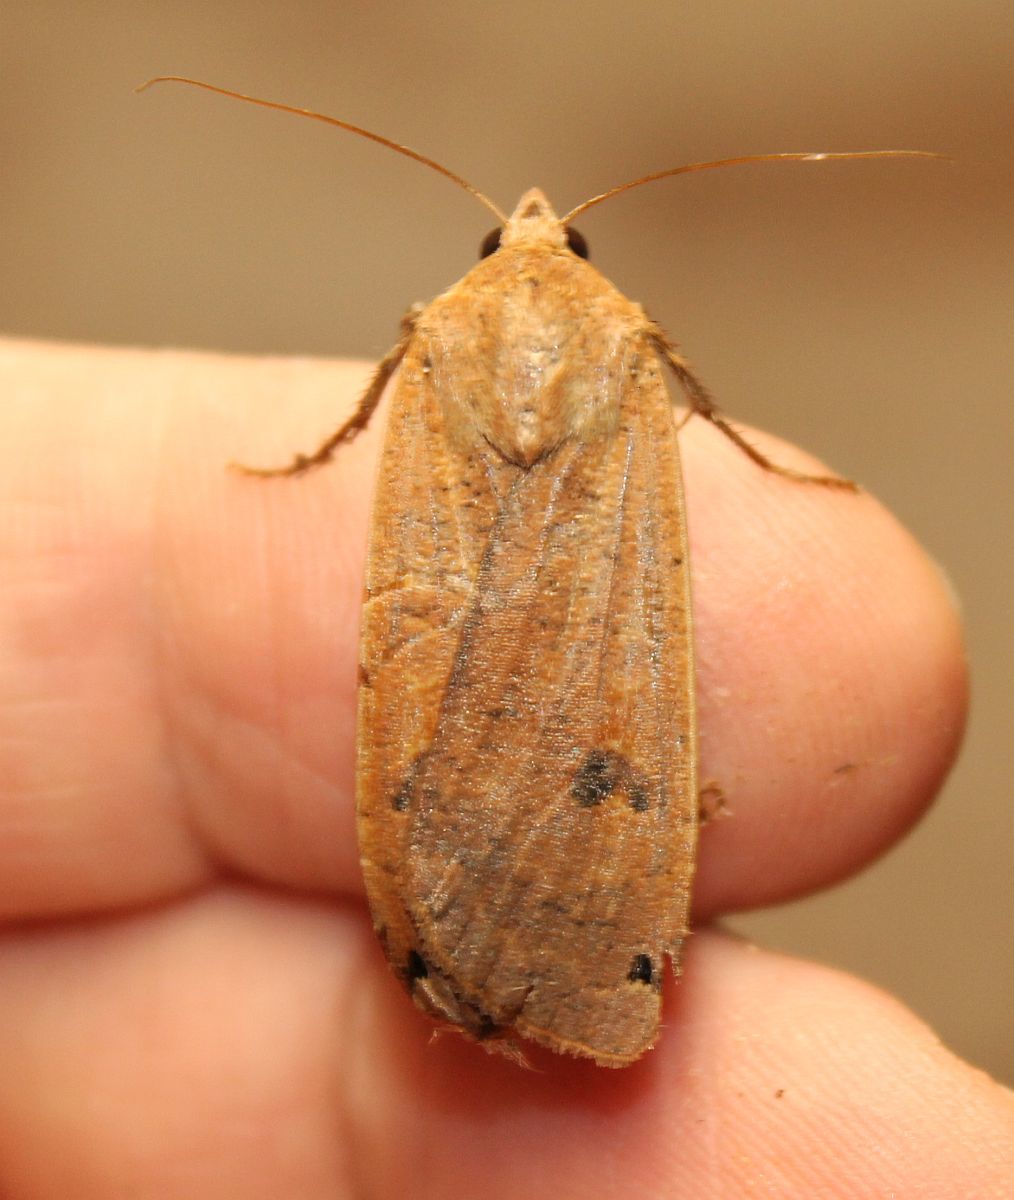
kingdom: Animalia
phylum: Arthropoda
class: Insecta
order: Lepidoptera
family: Noctuidae
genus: Noctua
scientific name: Noctua pronuba
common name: Large yellow underwing
